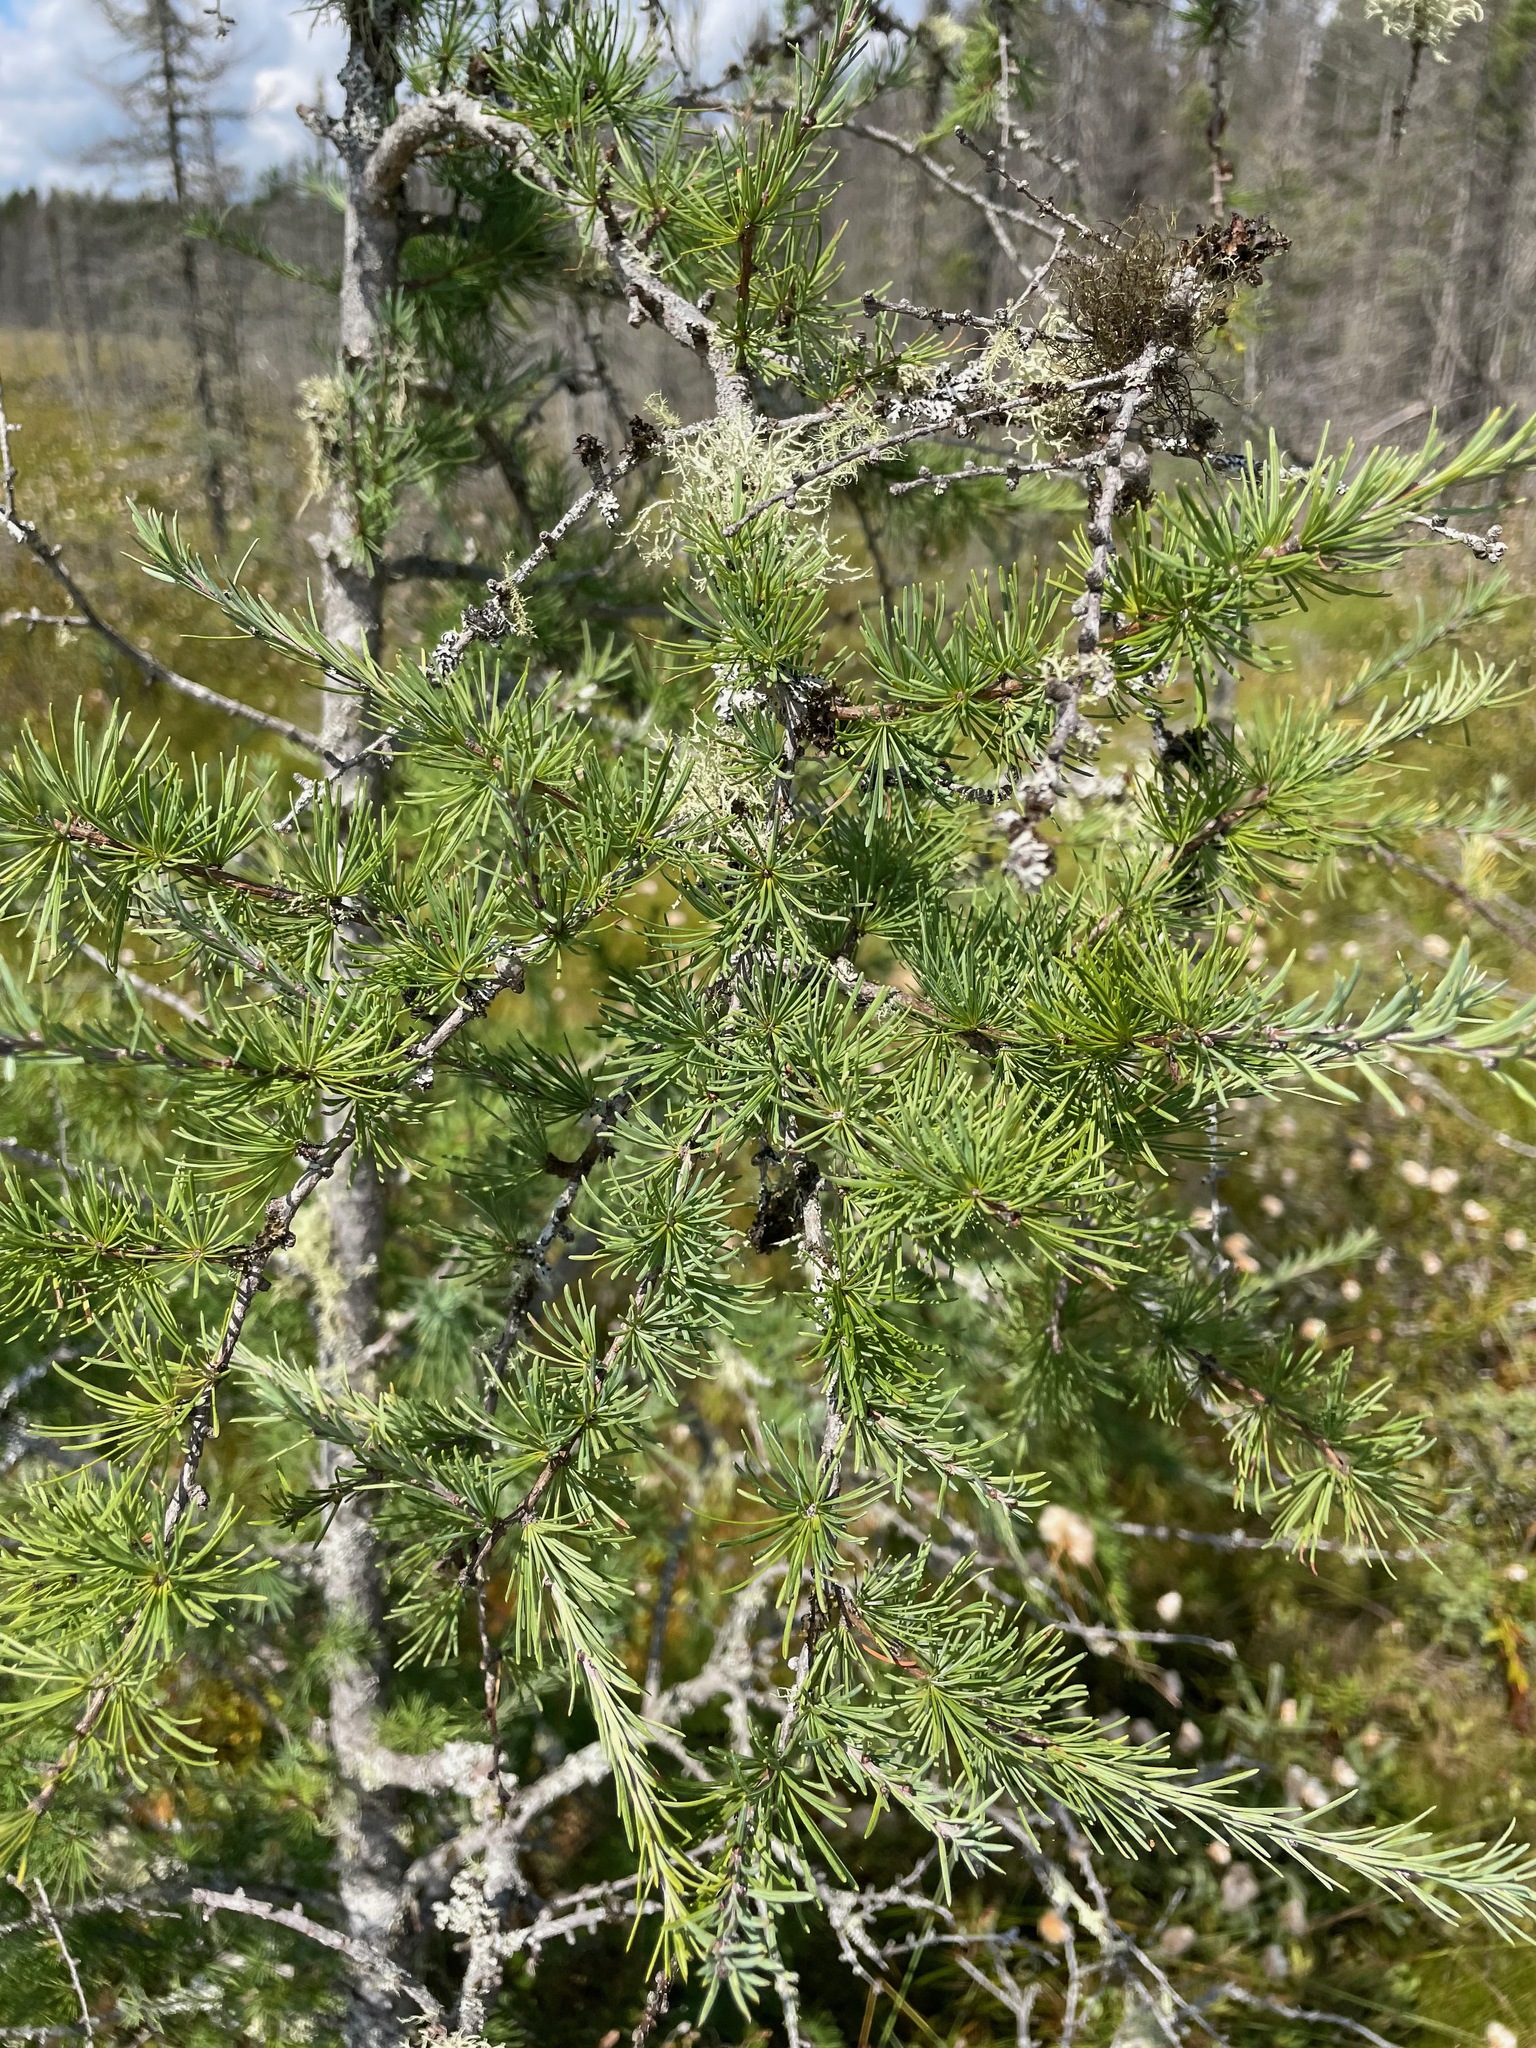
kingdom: Plantae
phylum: Tracheophyta
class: Pinopsida
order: Pinales
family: Pinaceae
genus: Larix
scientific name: Larix laricina
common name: American larch
